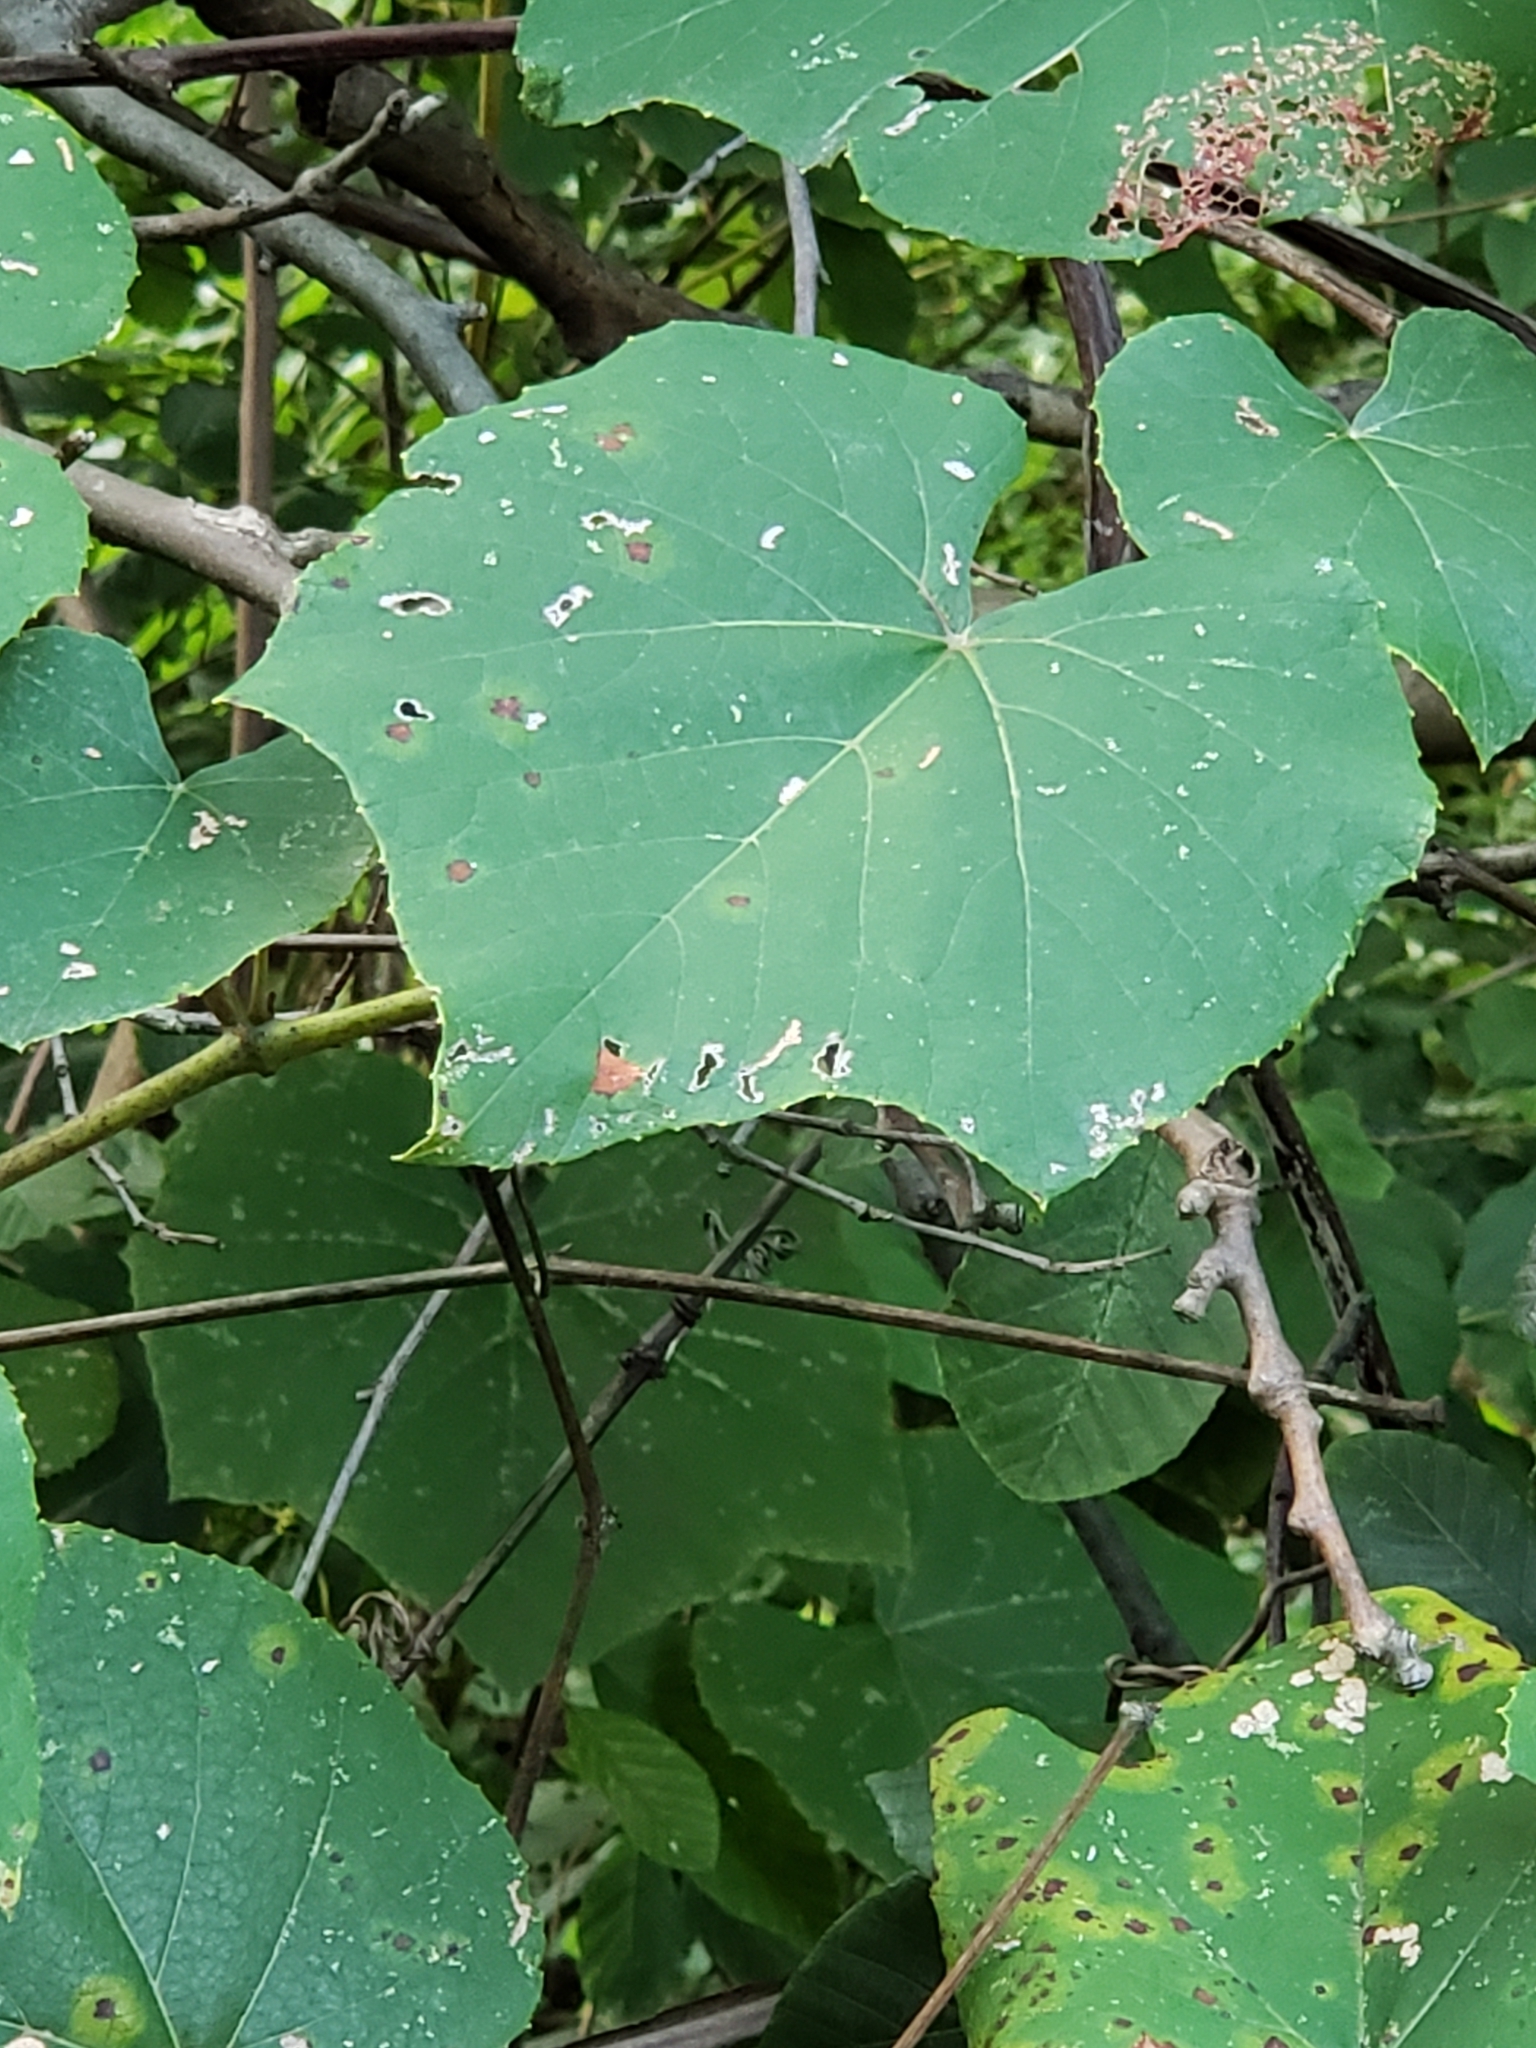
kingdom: Plantae
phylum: Tracheophyta
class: Magnoliopsida
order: Vitales
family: Vitaceae
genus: Vitis
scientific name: Vitis aestivalis
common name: Pigeon grape
